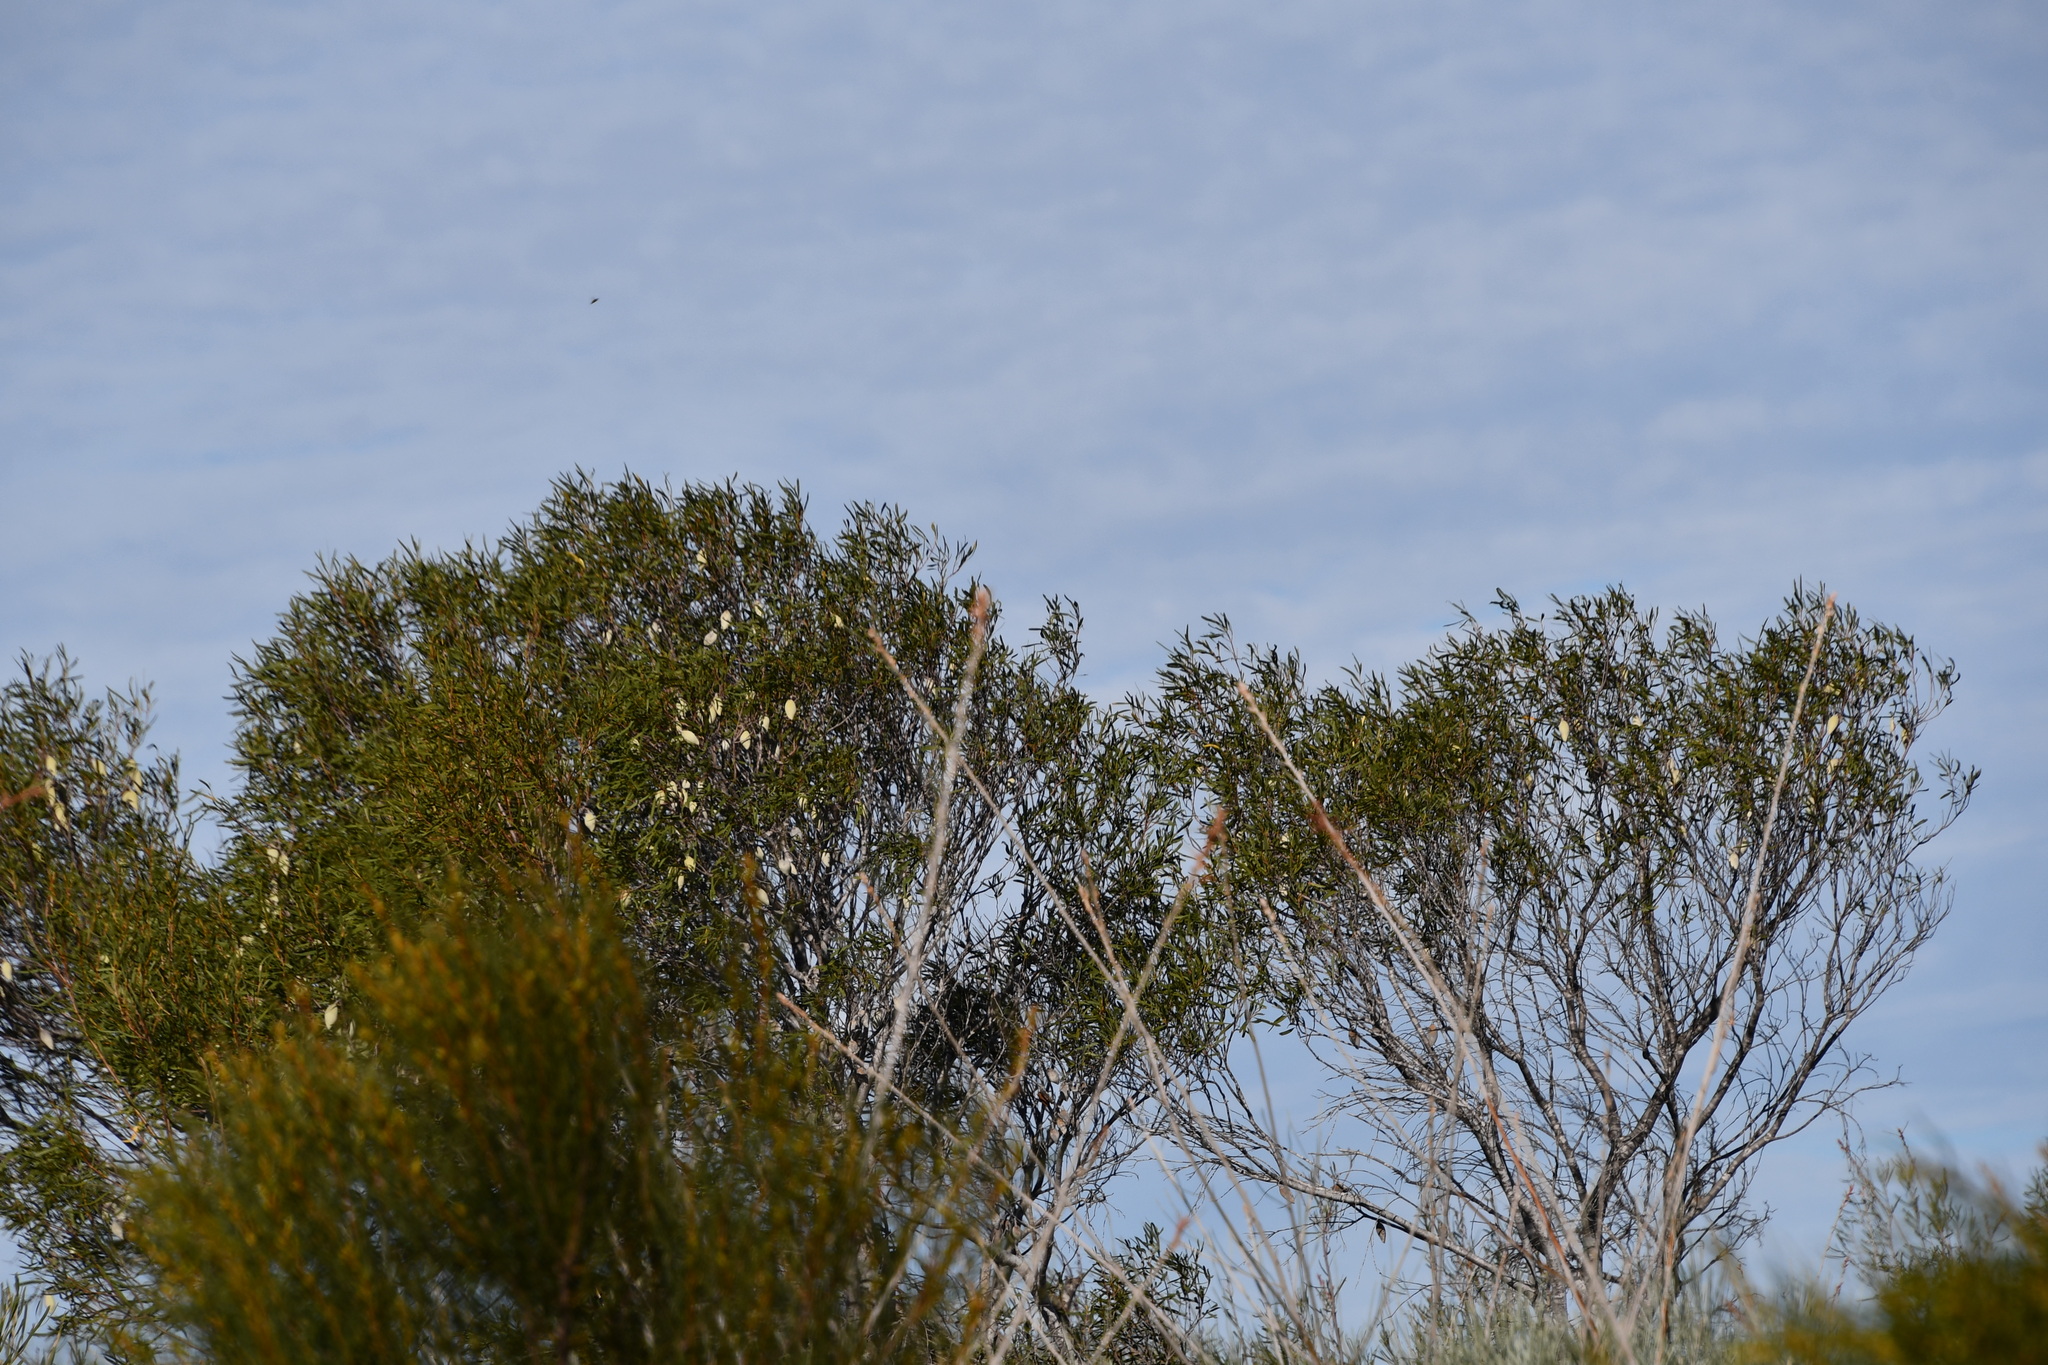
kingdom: Plantae
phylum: Tracheophyta
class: Magnoliopsida
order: Proteales
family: Proteaceae
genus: Xylomelum
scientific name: Xylomelum angustifolium
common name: Sandplain woody-pear
